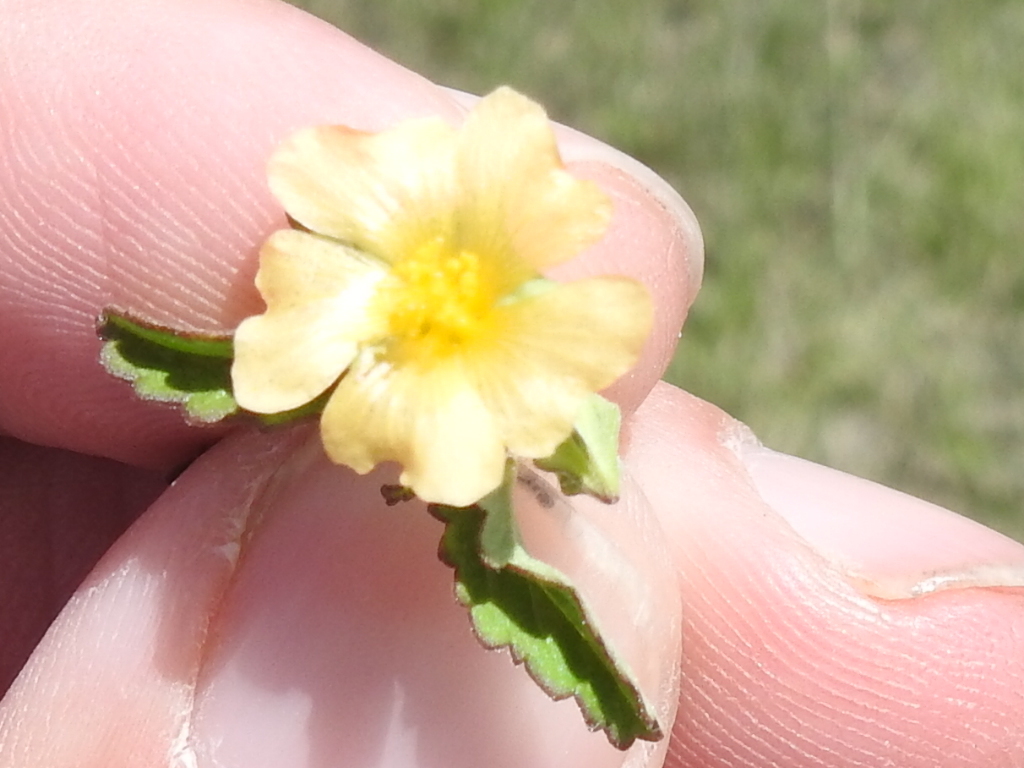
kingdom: Plantae
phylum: Tracheophyta
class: Magnoliopsida
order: Malvales
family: Malvaceae
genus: Sida
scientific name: Sida abutilifolia
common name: Spreading fanpetals
